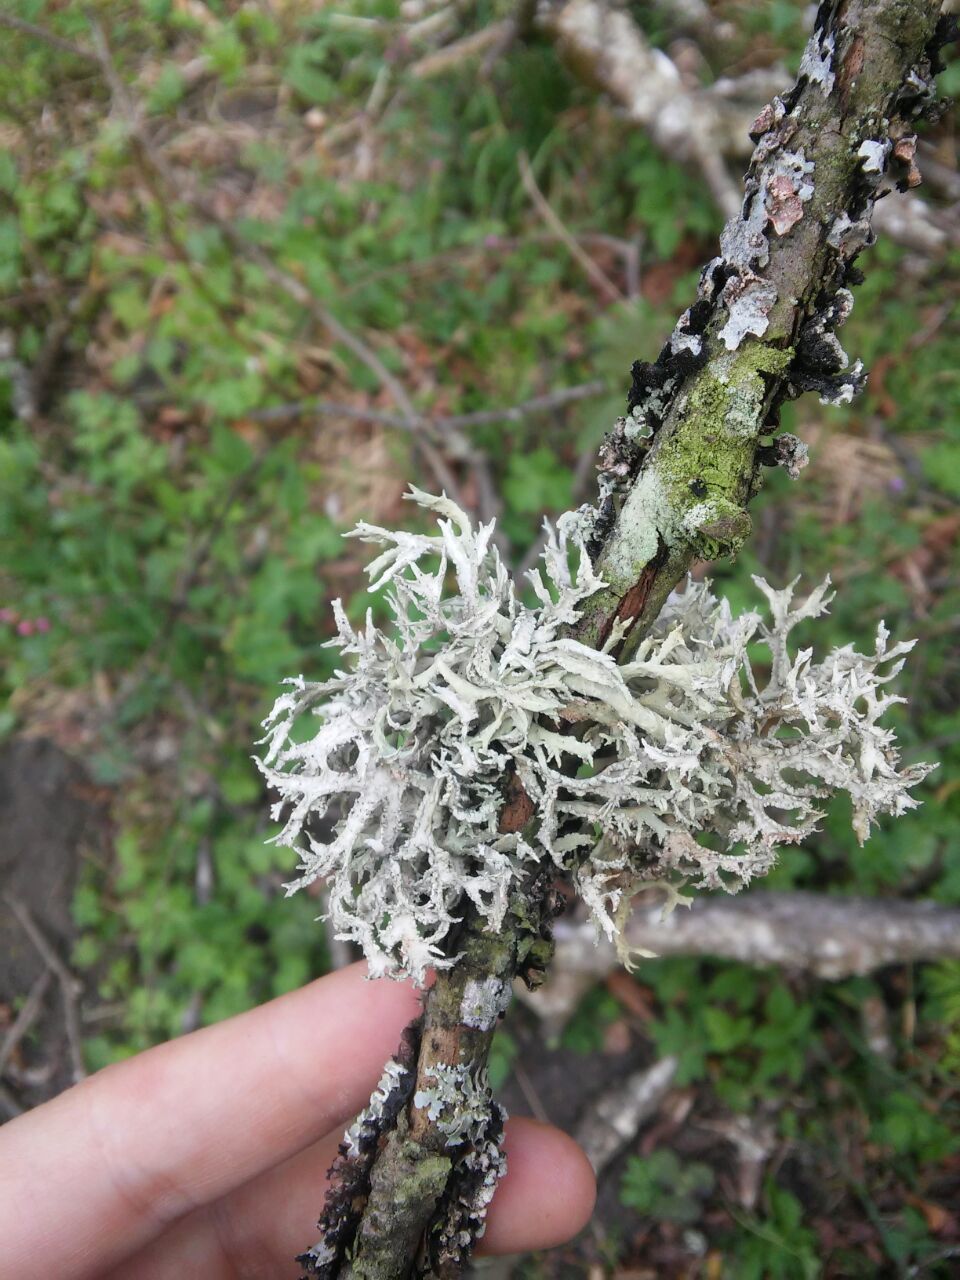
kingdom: Fungi
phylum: Ascomycota
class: Lecanoromycetes
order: Lecanorales
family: Parmeliaceae
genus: Evernia
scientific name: Evernia prunastri
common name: Oak moss
